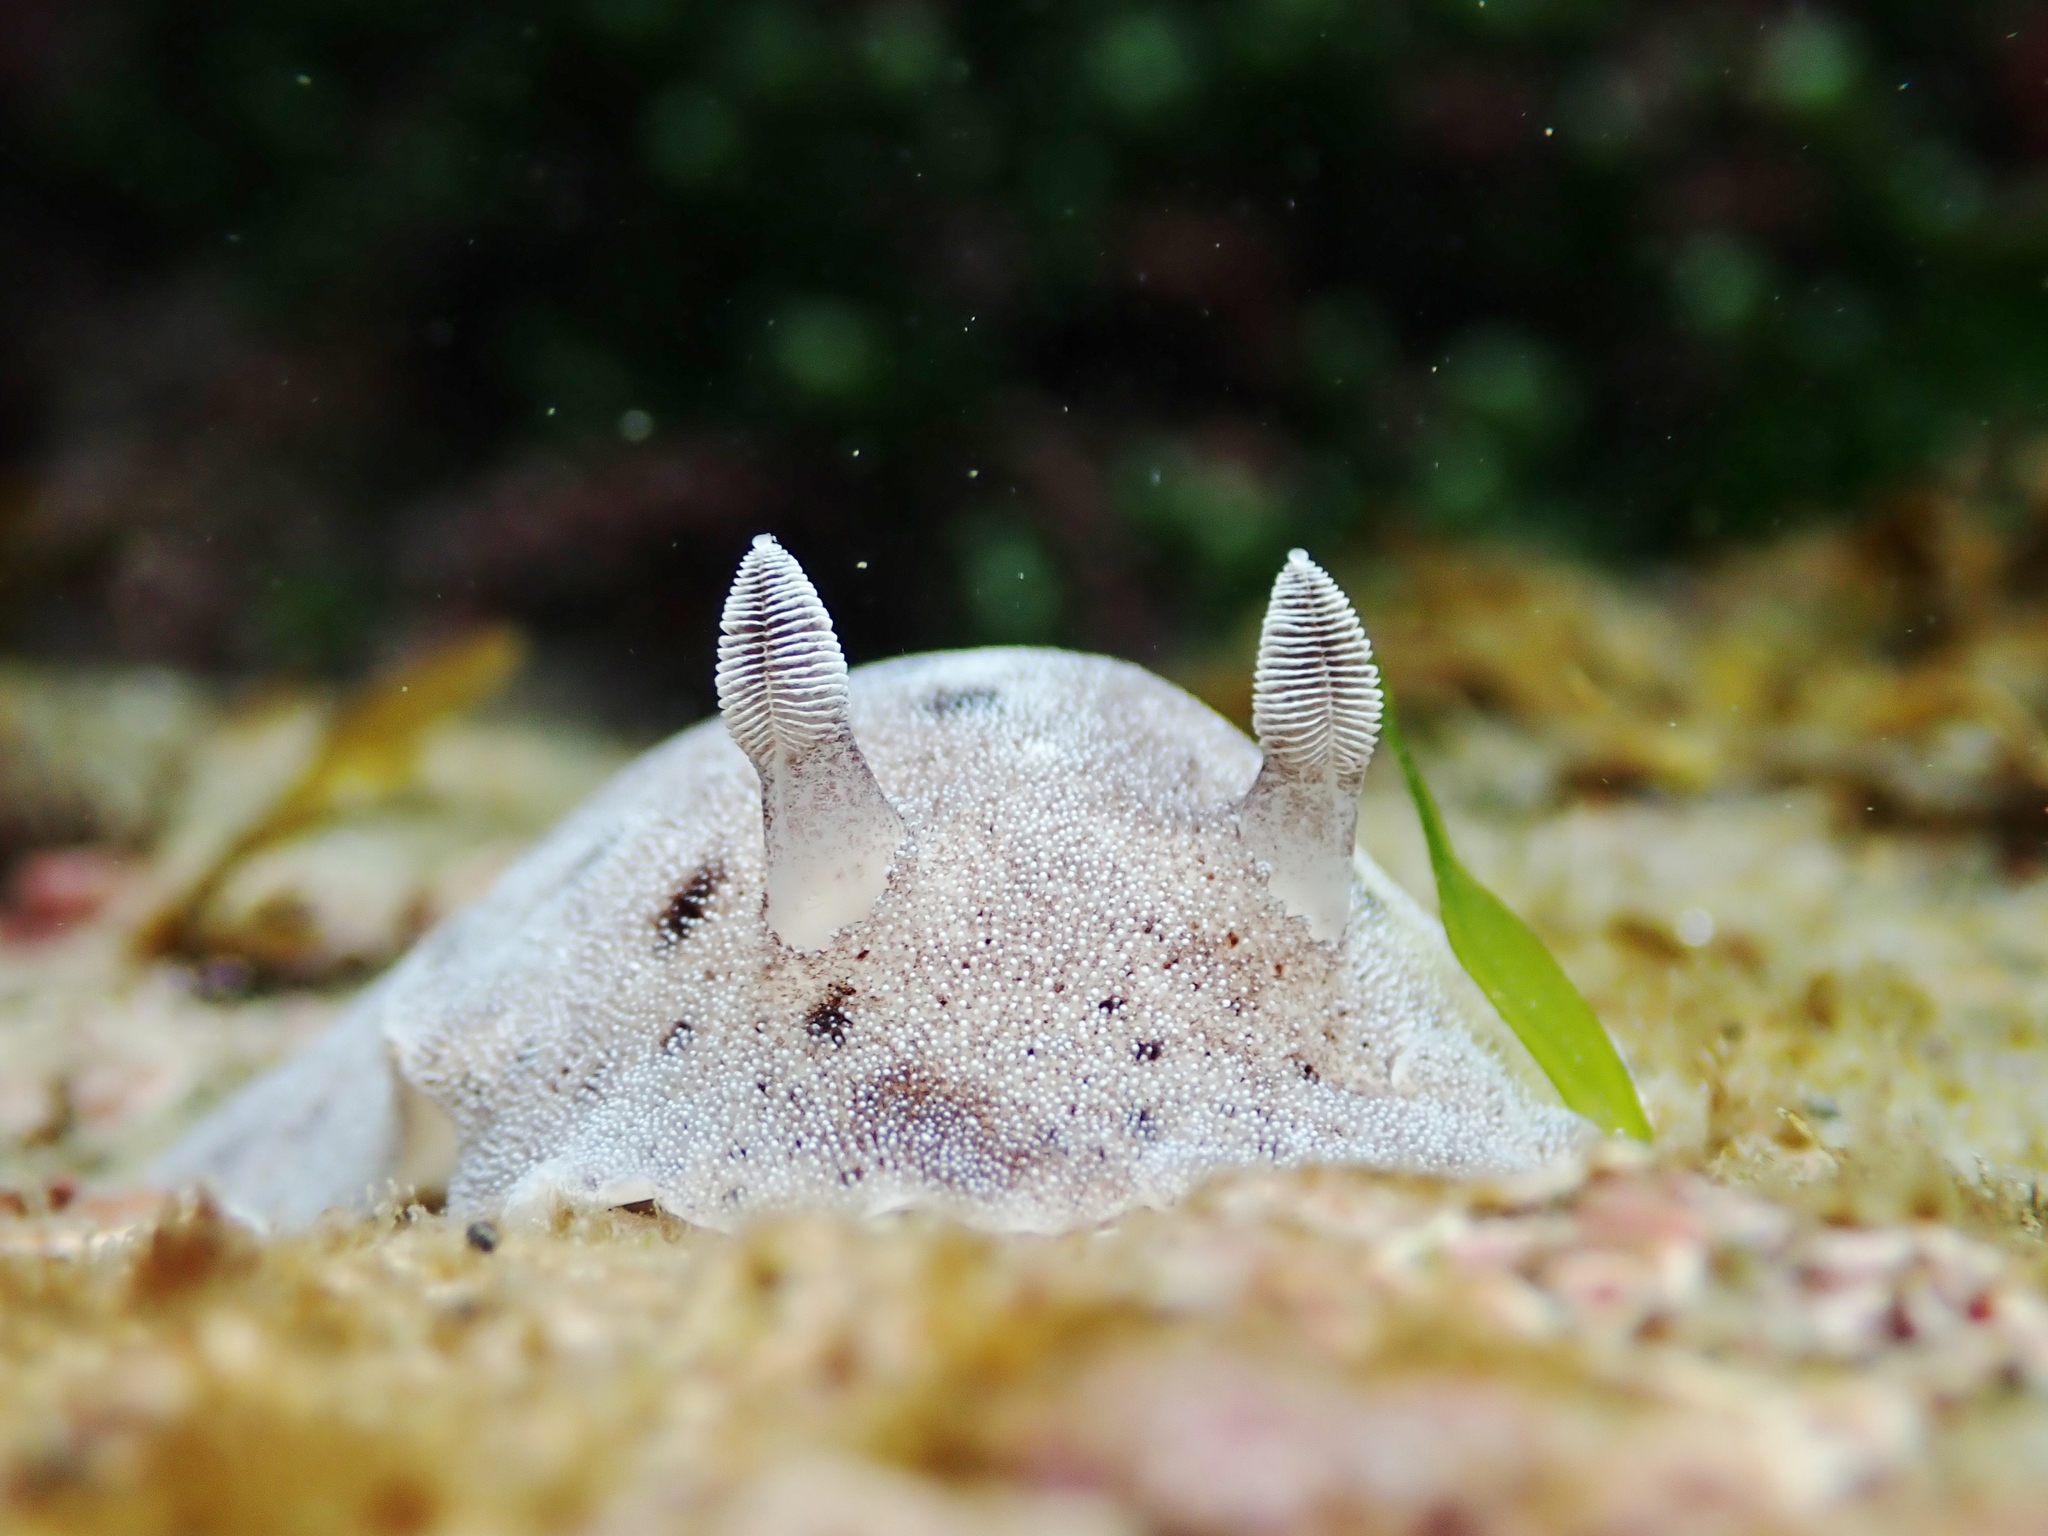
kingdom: Animalia
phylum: Mollusca
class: Gastropoda
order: Nudibranchia
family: Discodorididae
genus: Alloiodoris
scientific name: Alloiodoris lanuginata
